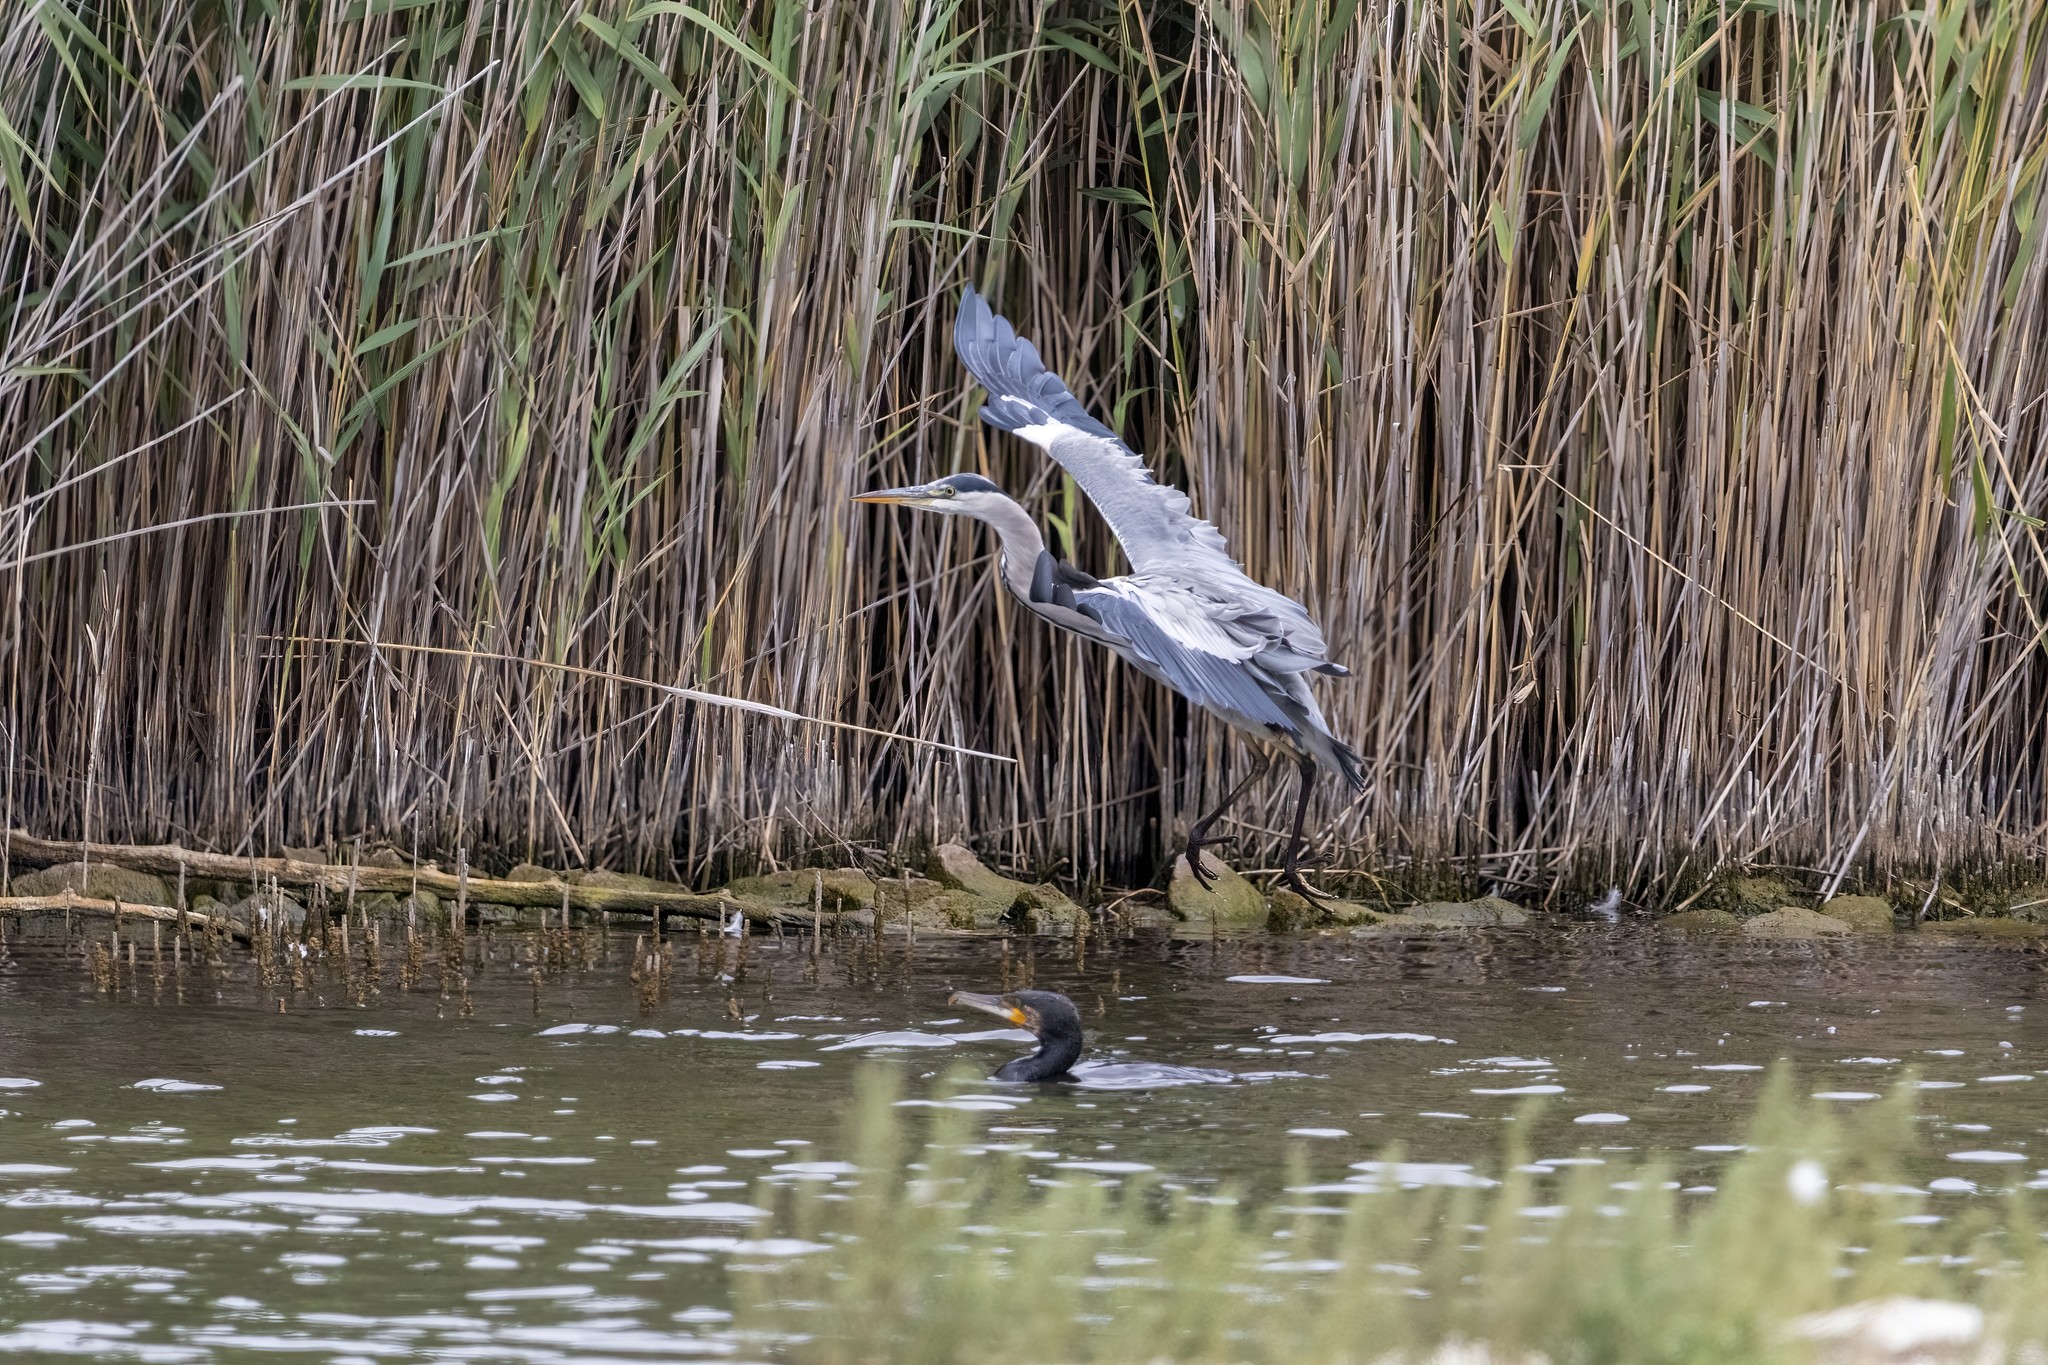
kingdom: Animalia
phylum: Chordata
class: Aves
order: Pelecaniformes
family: Ardeidae
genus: Ardea
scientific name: Ardea cinerea
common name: Grey heron
